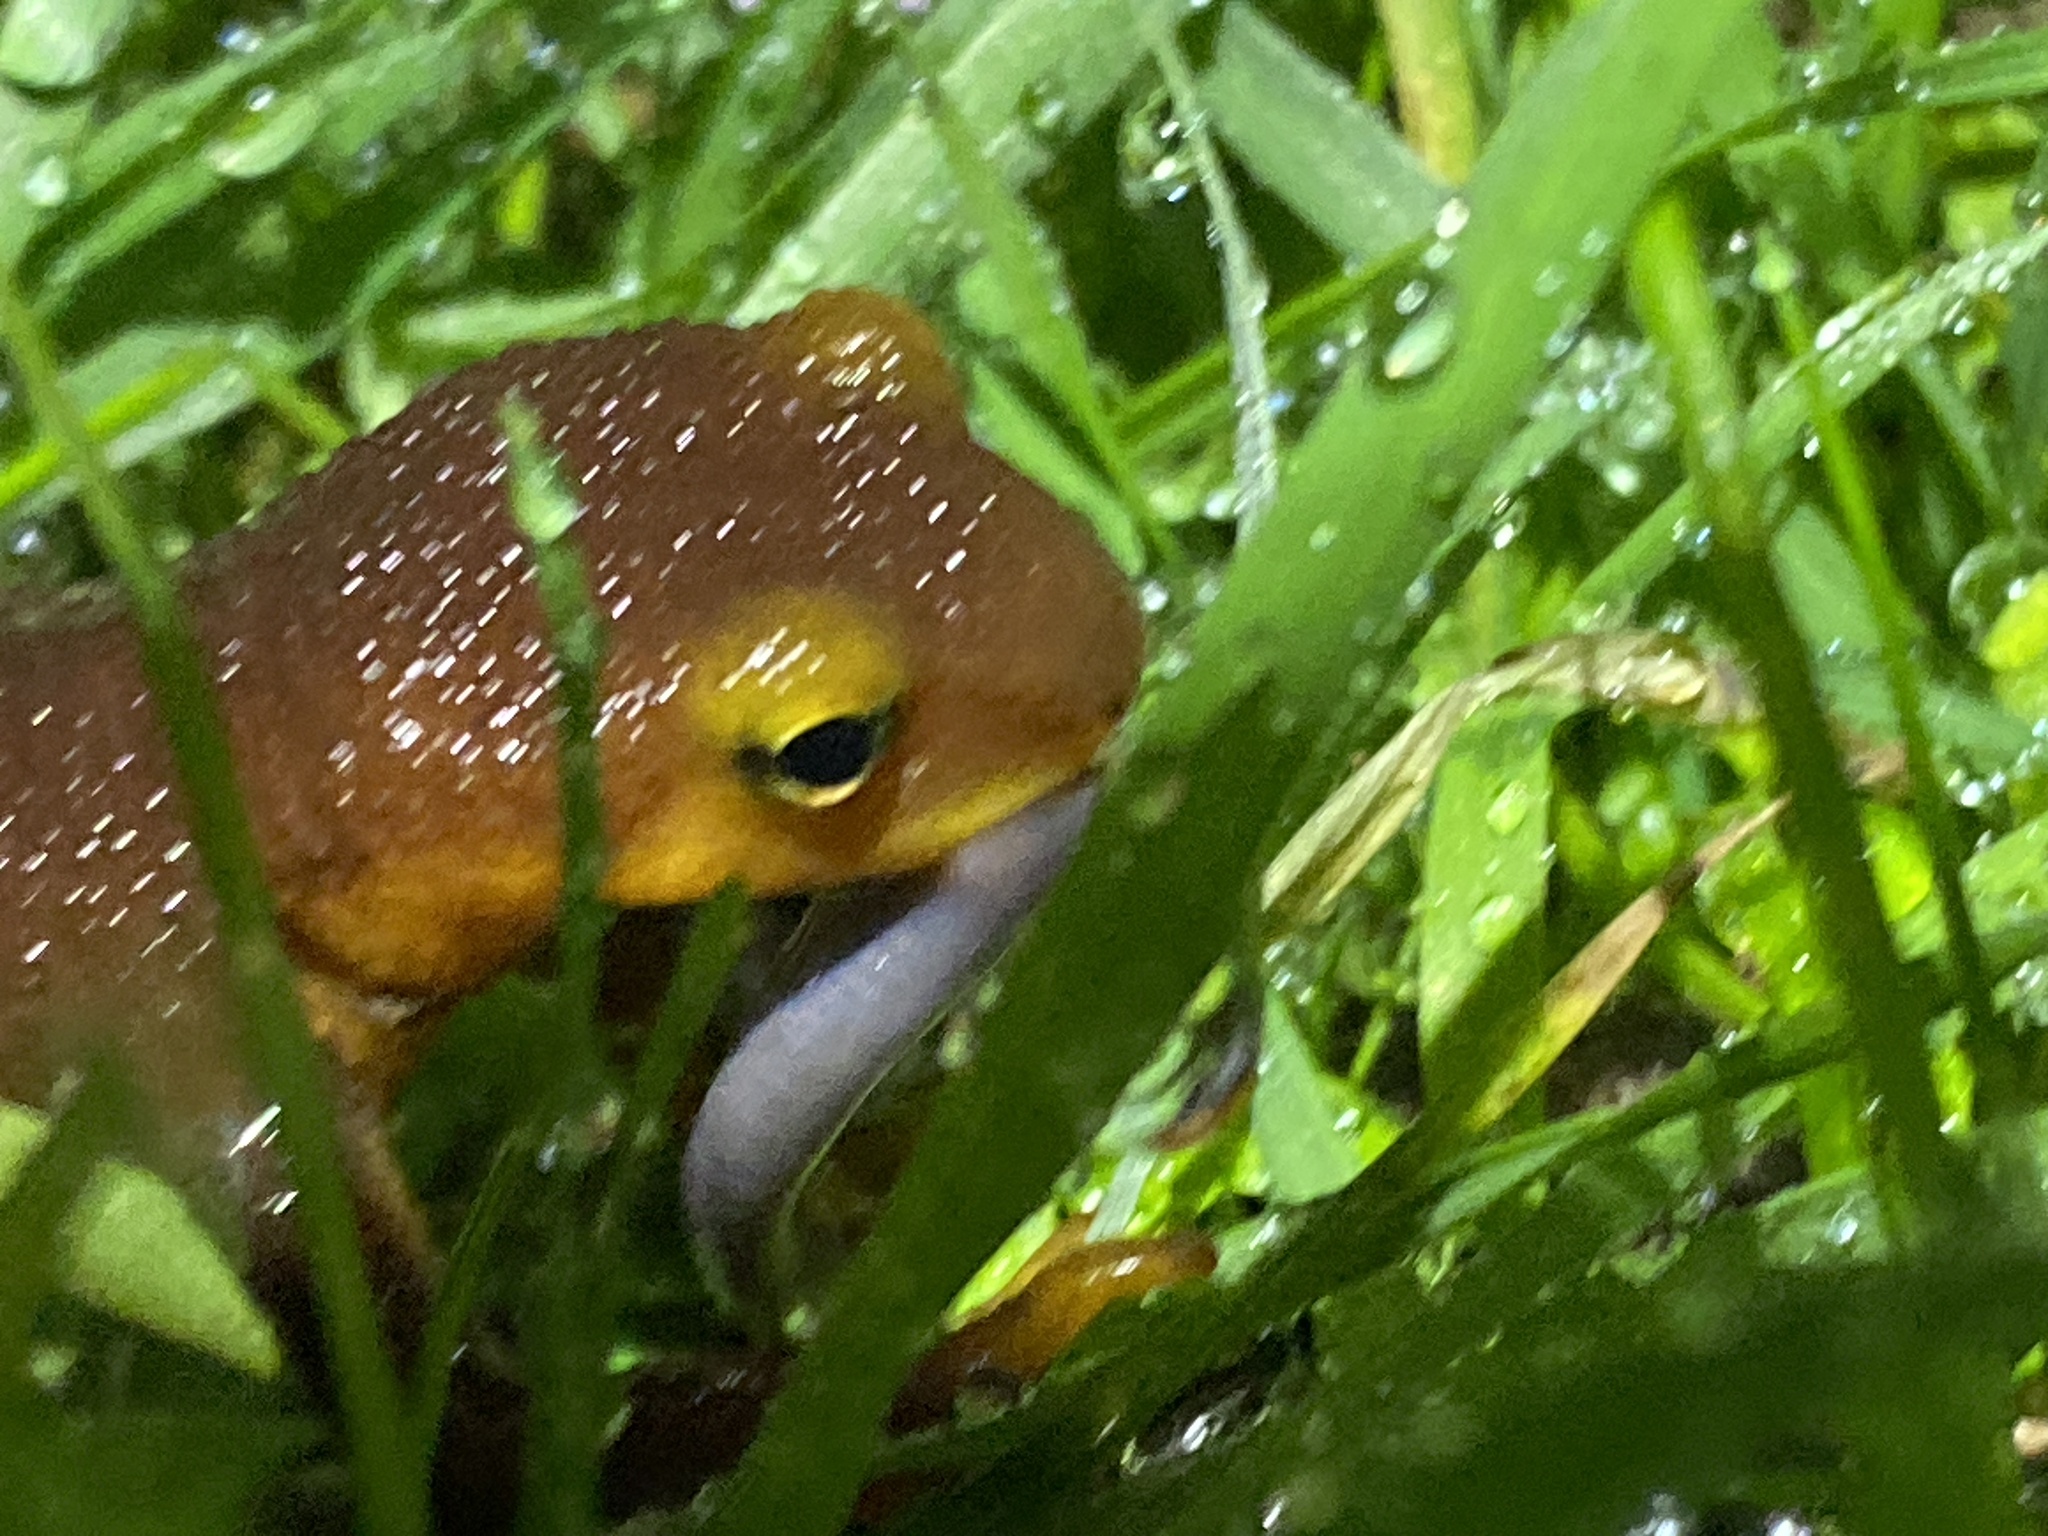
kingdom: Animalia
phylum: Chordata
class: Amphibia
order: Caudata
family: Salamandridae
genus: Taricha
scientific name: Taricha torosa
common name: California newt
